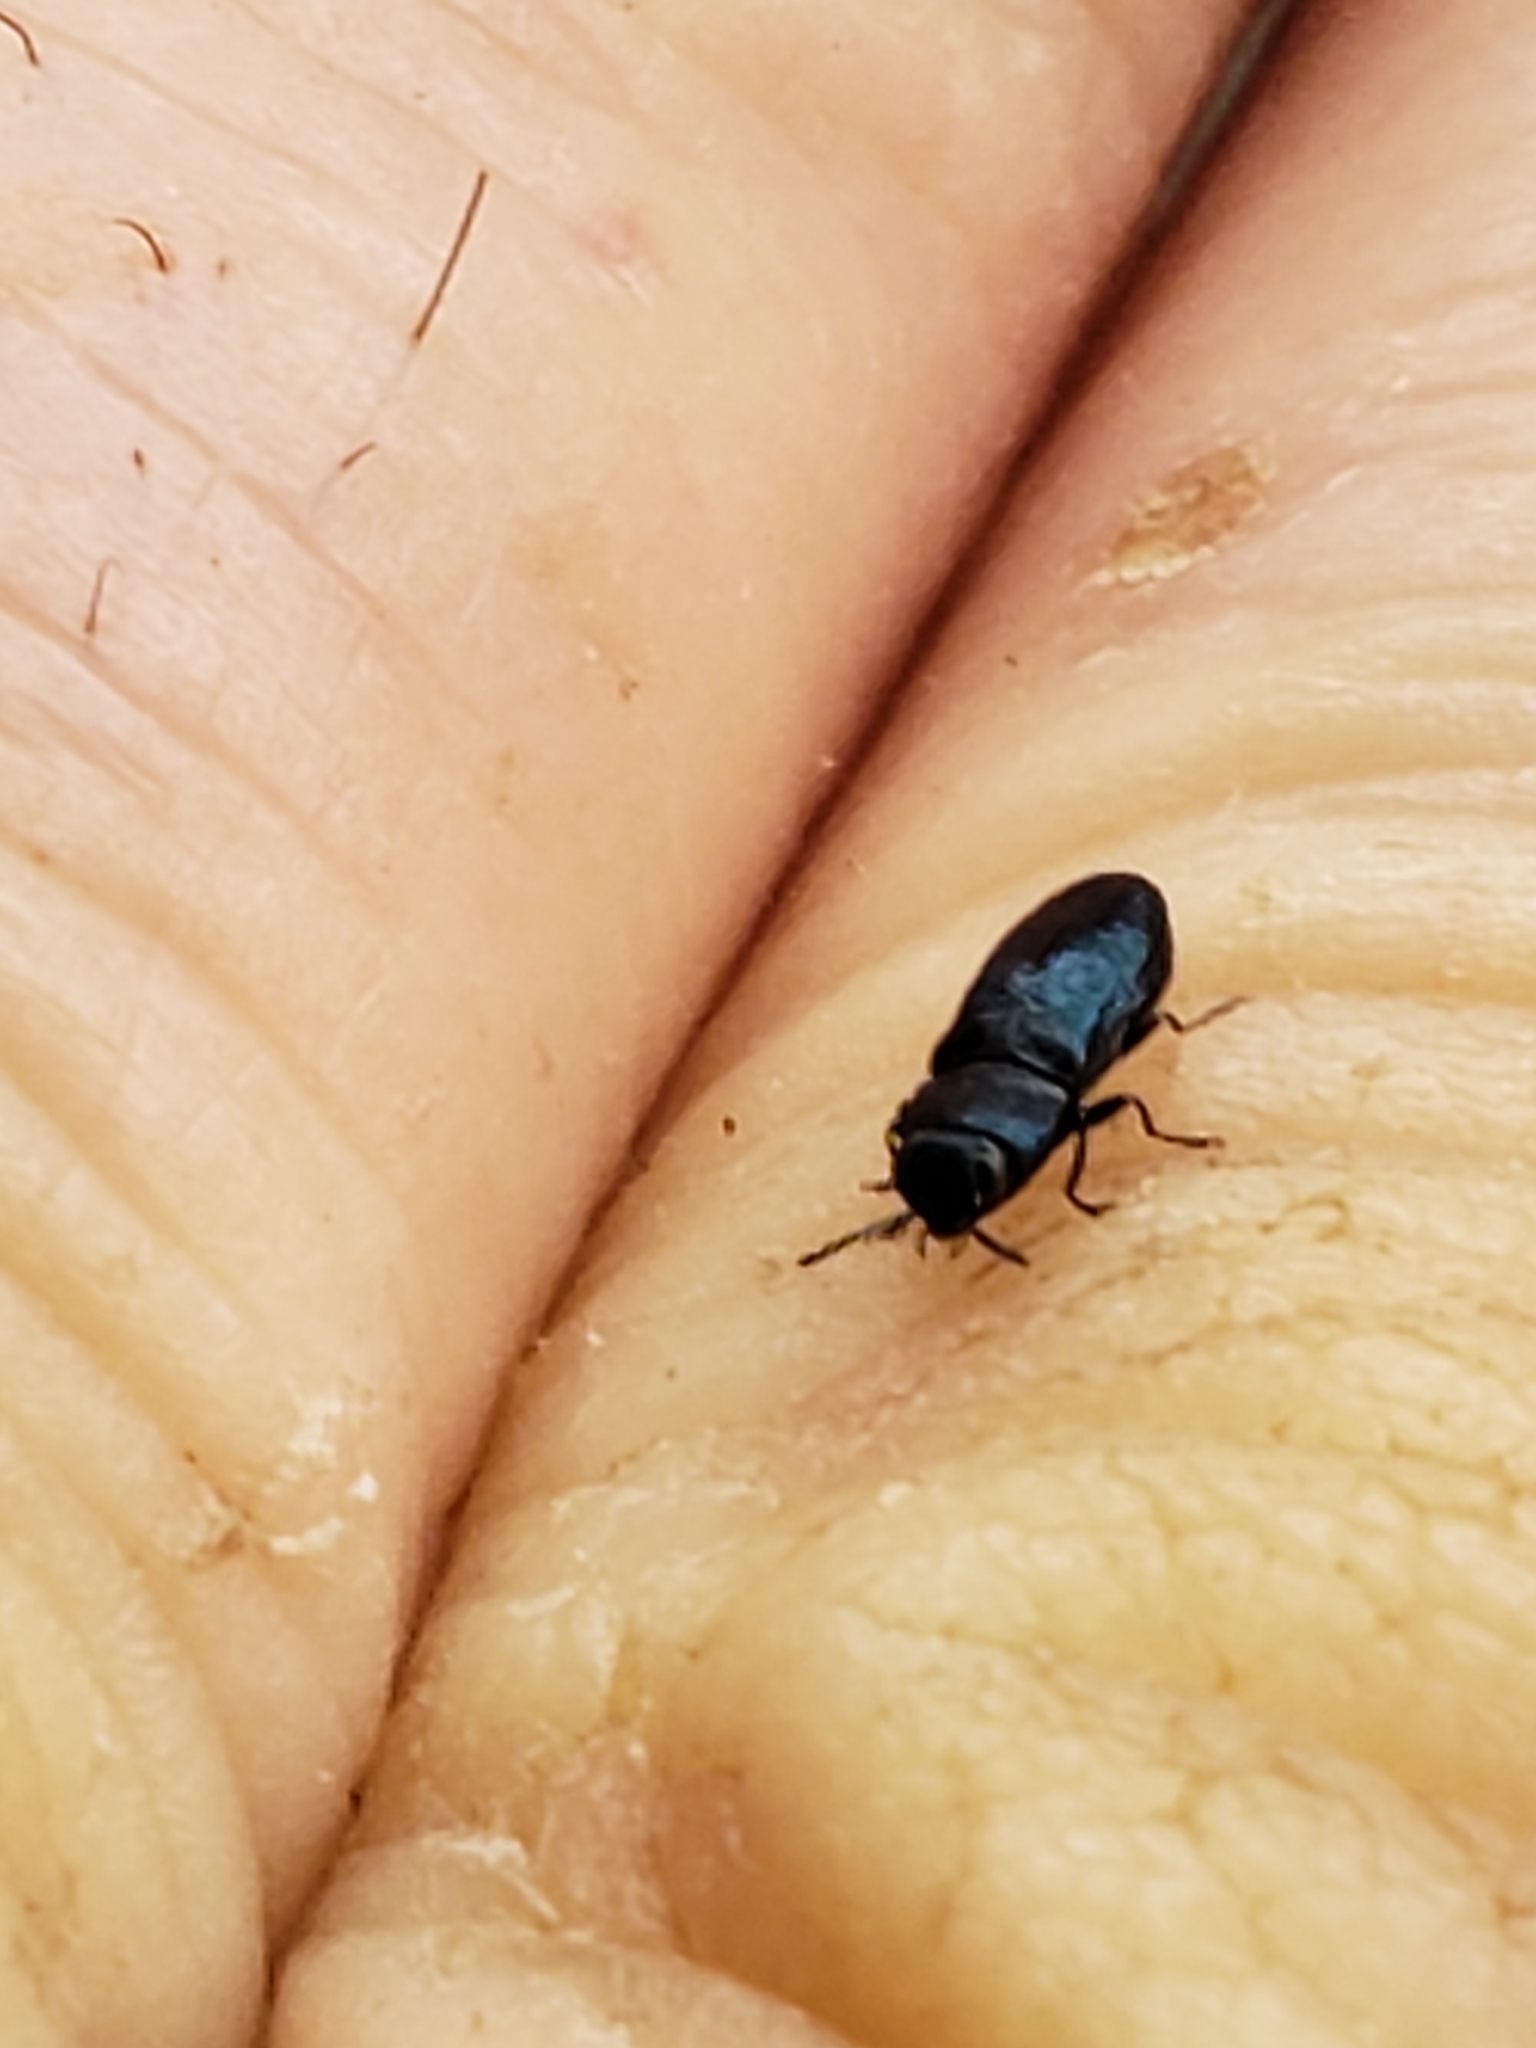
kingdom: Animalia
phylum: Arthropoda
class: Insecta
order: Coleoptera
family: Buprestidae
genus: Anthaxia
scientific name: Anthaxia cyanella
